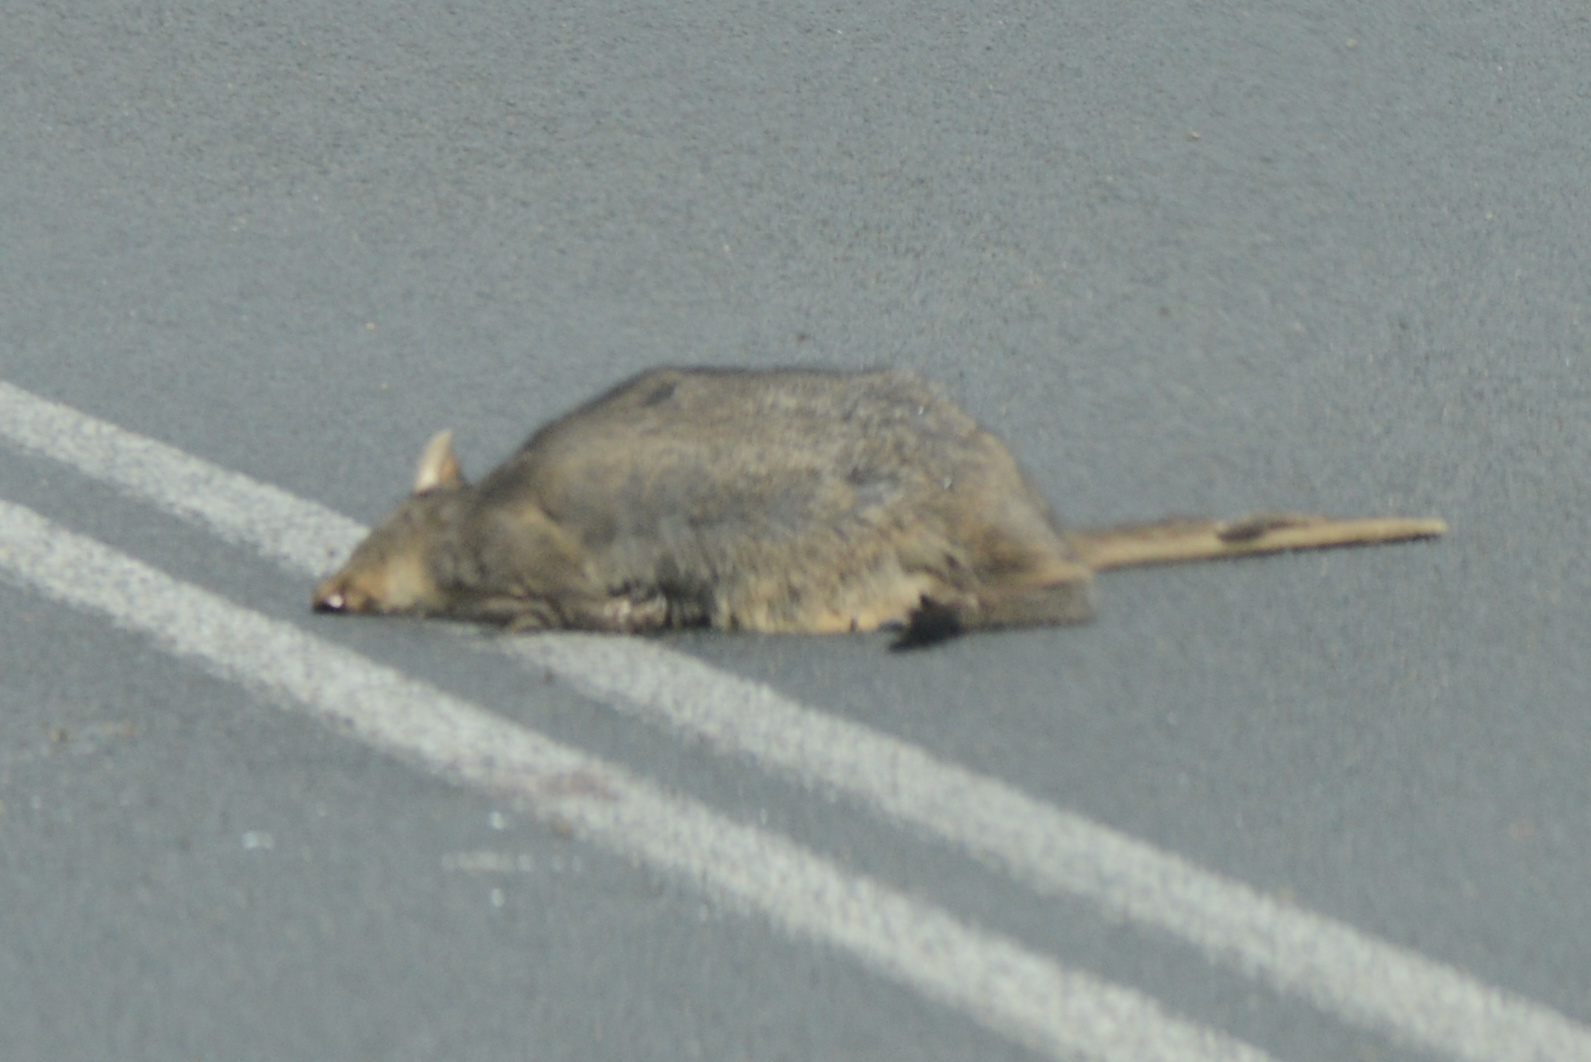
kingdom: Animalia
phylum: Chordata
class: Mammalia
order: Diprotodontia
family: Macropodidae
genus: Thylogale
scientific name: Thylogale billardierii
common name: Tasmanian pademelon
